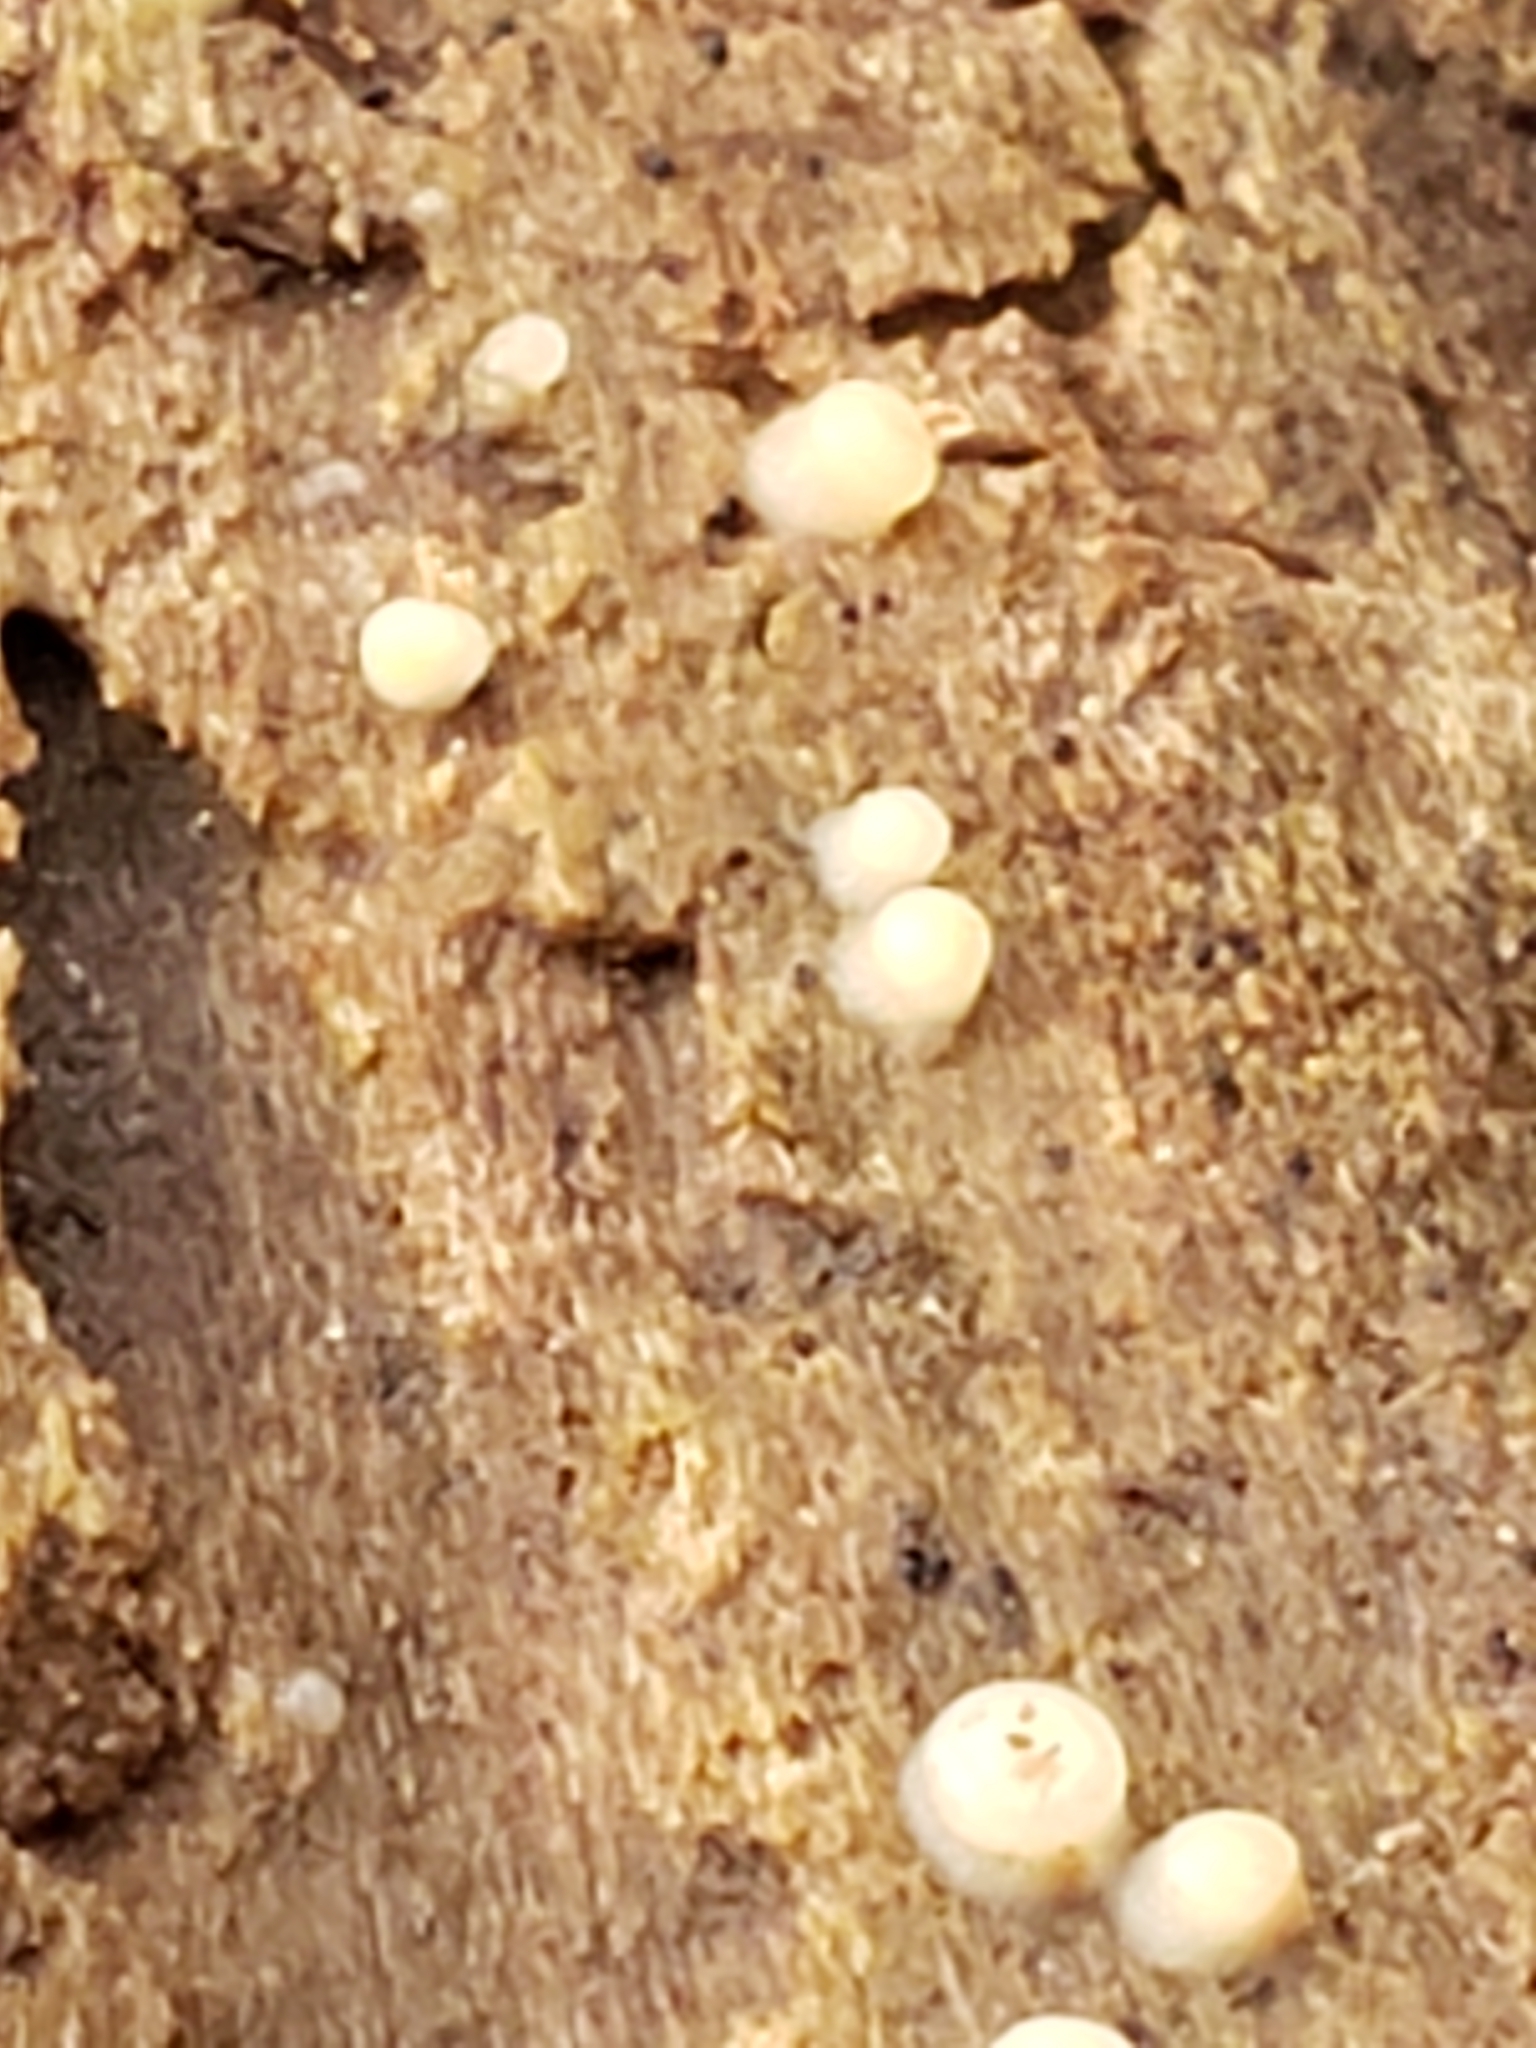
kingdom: Fungi
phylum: Basidiomycota
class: Atractiellomycetes
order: Atractiellales
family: Phleogenaceae
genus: Helicogloea
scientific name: Helicogloea compressa
